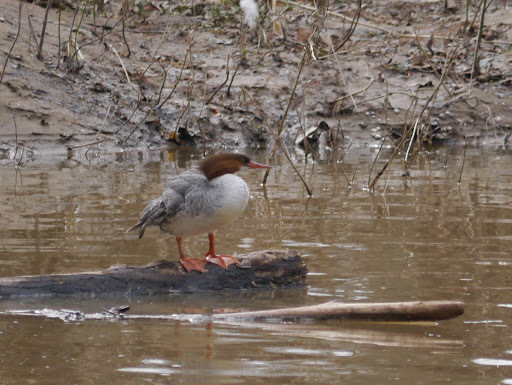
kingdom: Animalia
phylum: Chordata
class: Aves
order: Anseriformes
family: Anatidae
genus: Mergus
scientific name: Mergus merganser
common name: Common merganser
